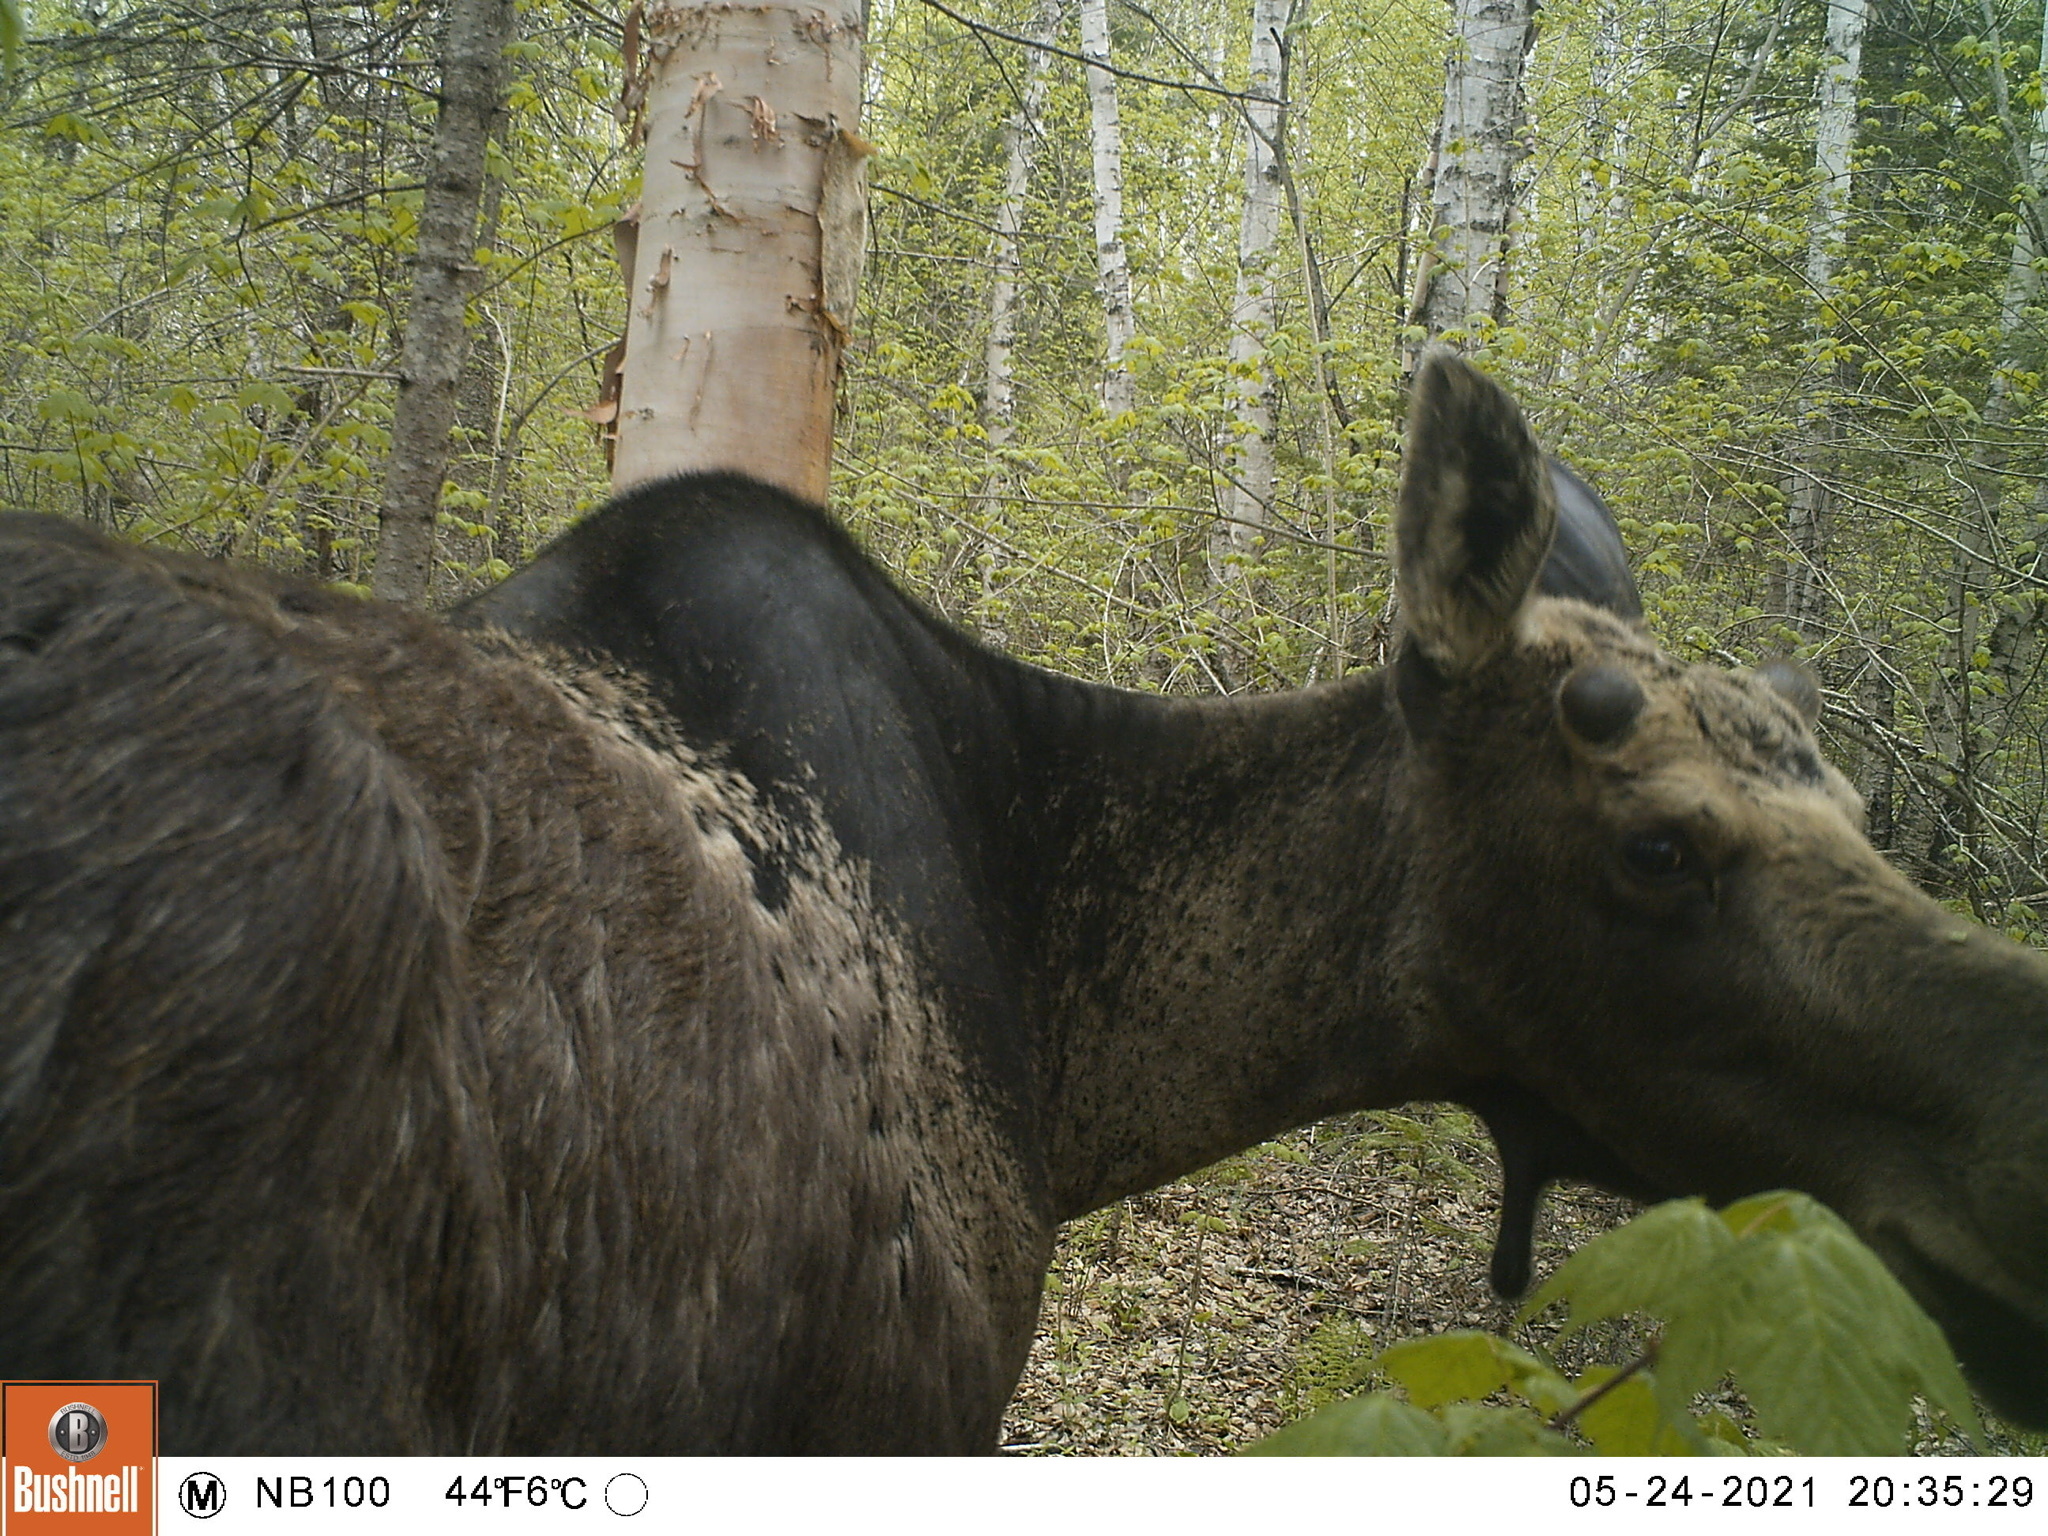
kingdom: Animalia
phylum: Chordata
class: Mammalia
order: Artiodactyla
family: Cervidae
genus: Alces
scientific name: Alces alces
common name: Moose
